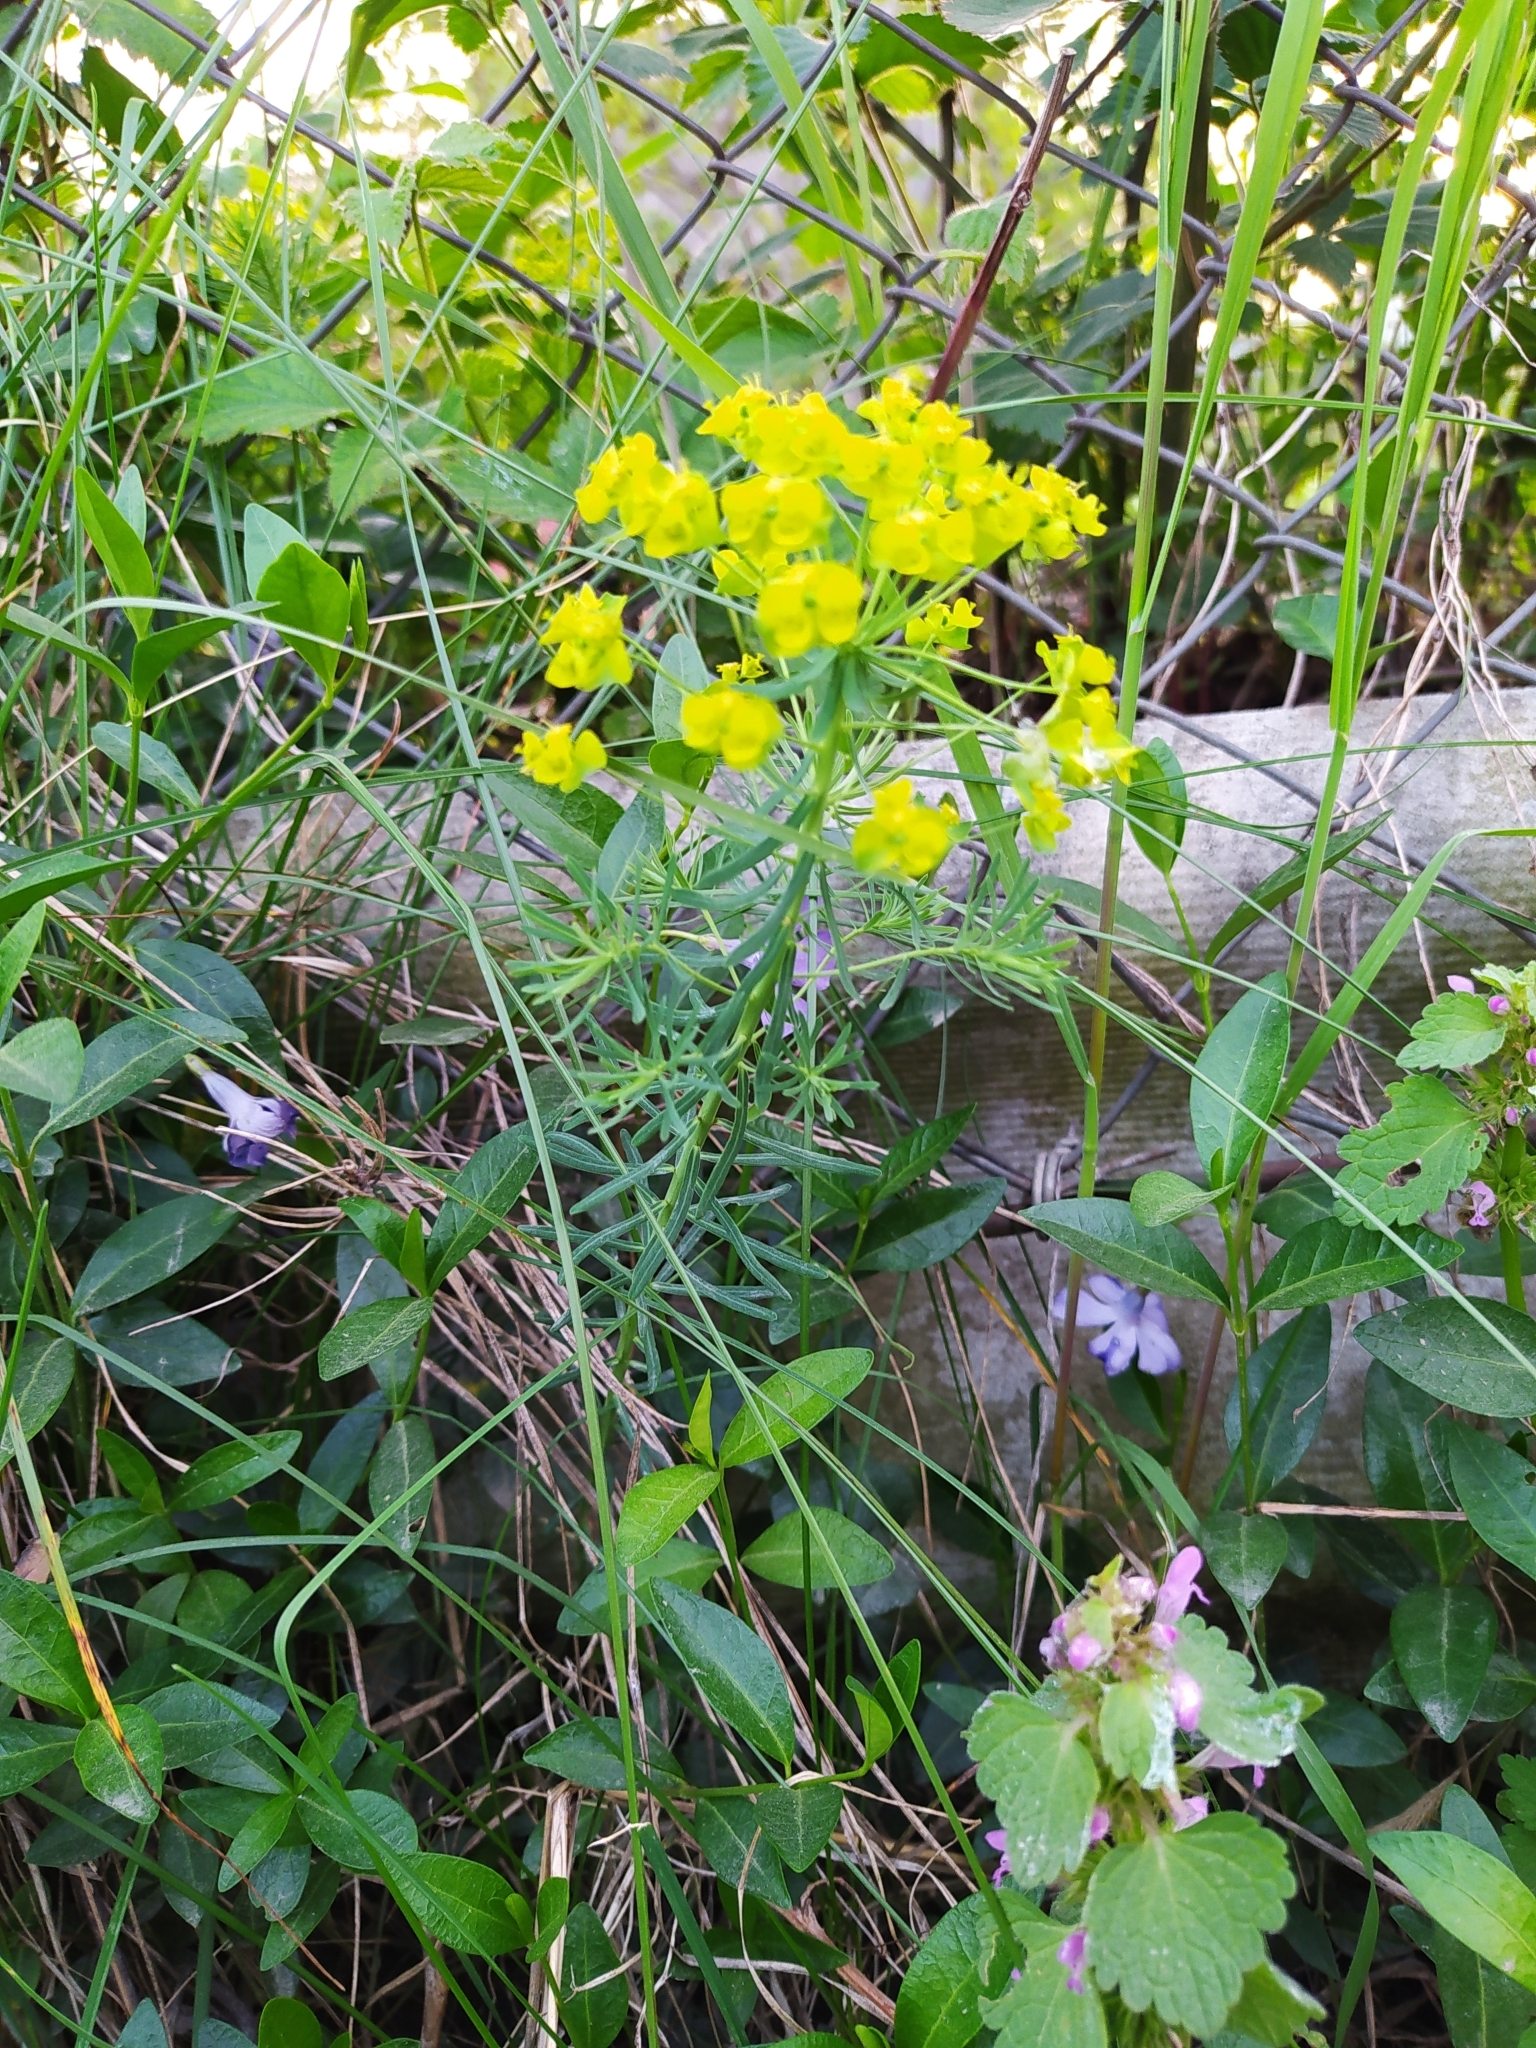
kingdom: Plantae
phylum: Tracheophyta
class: Magnoliopsida
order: Malpighiales
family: Euphorbiaceae
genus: Euphorbia
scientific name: Euphorbia virgata
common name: Leafy spurge
